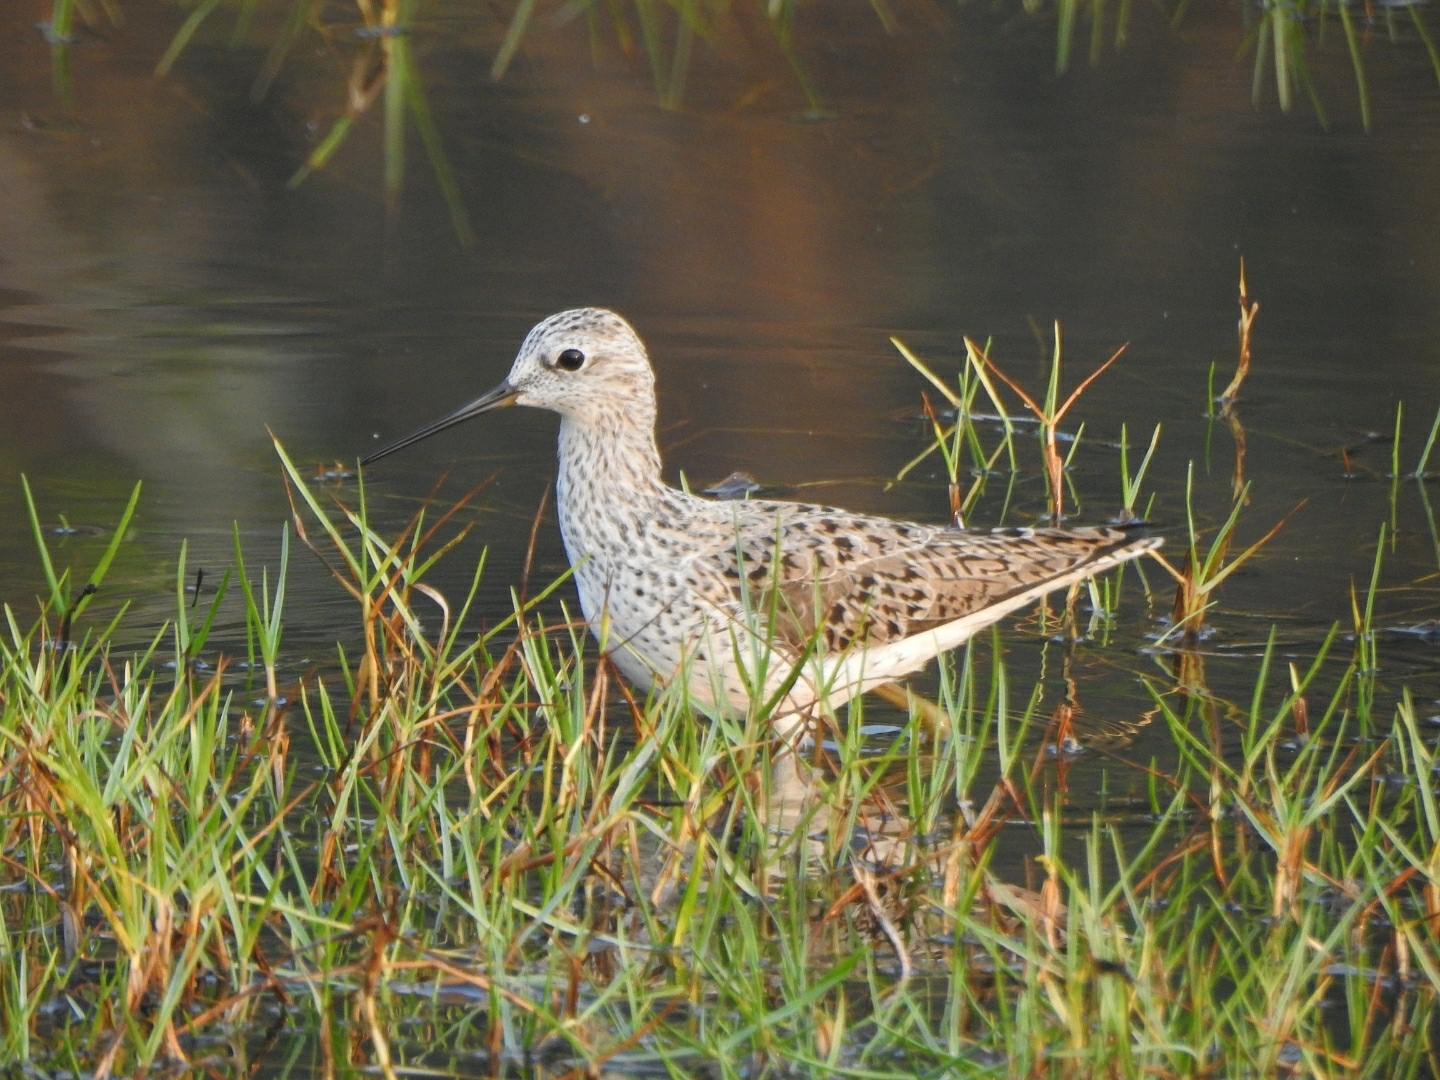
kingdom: Animalia
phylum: Chordata
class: Aves
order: Charadriiformes
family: Scolopacidae
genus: Tringa
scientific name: Tringa stagnatilis
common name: Marsh sandpiper
